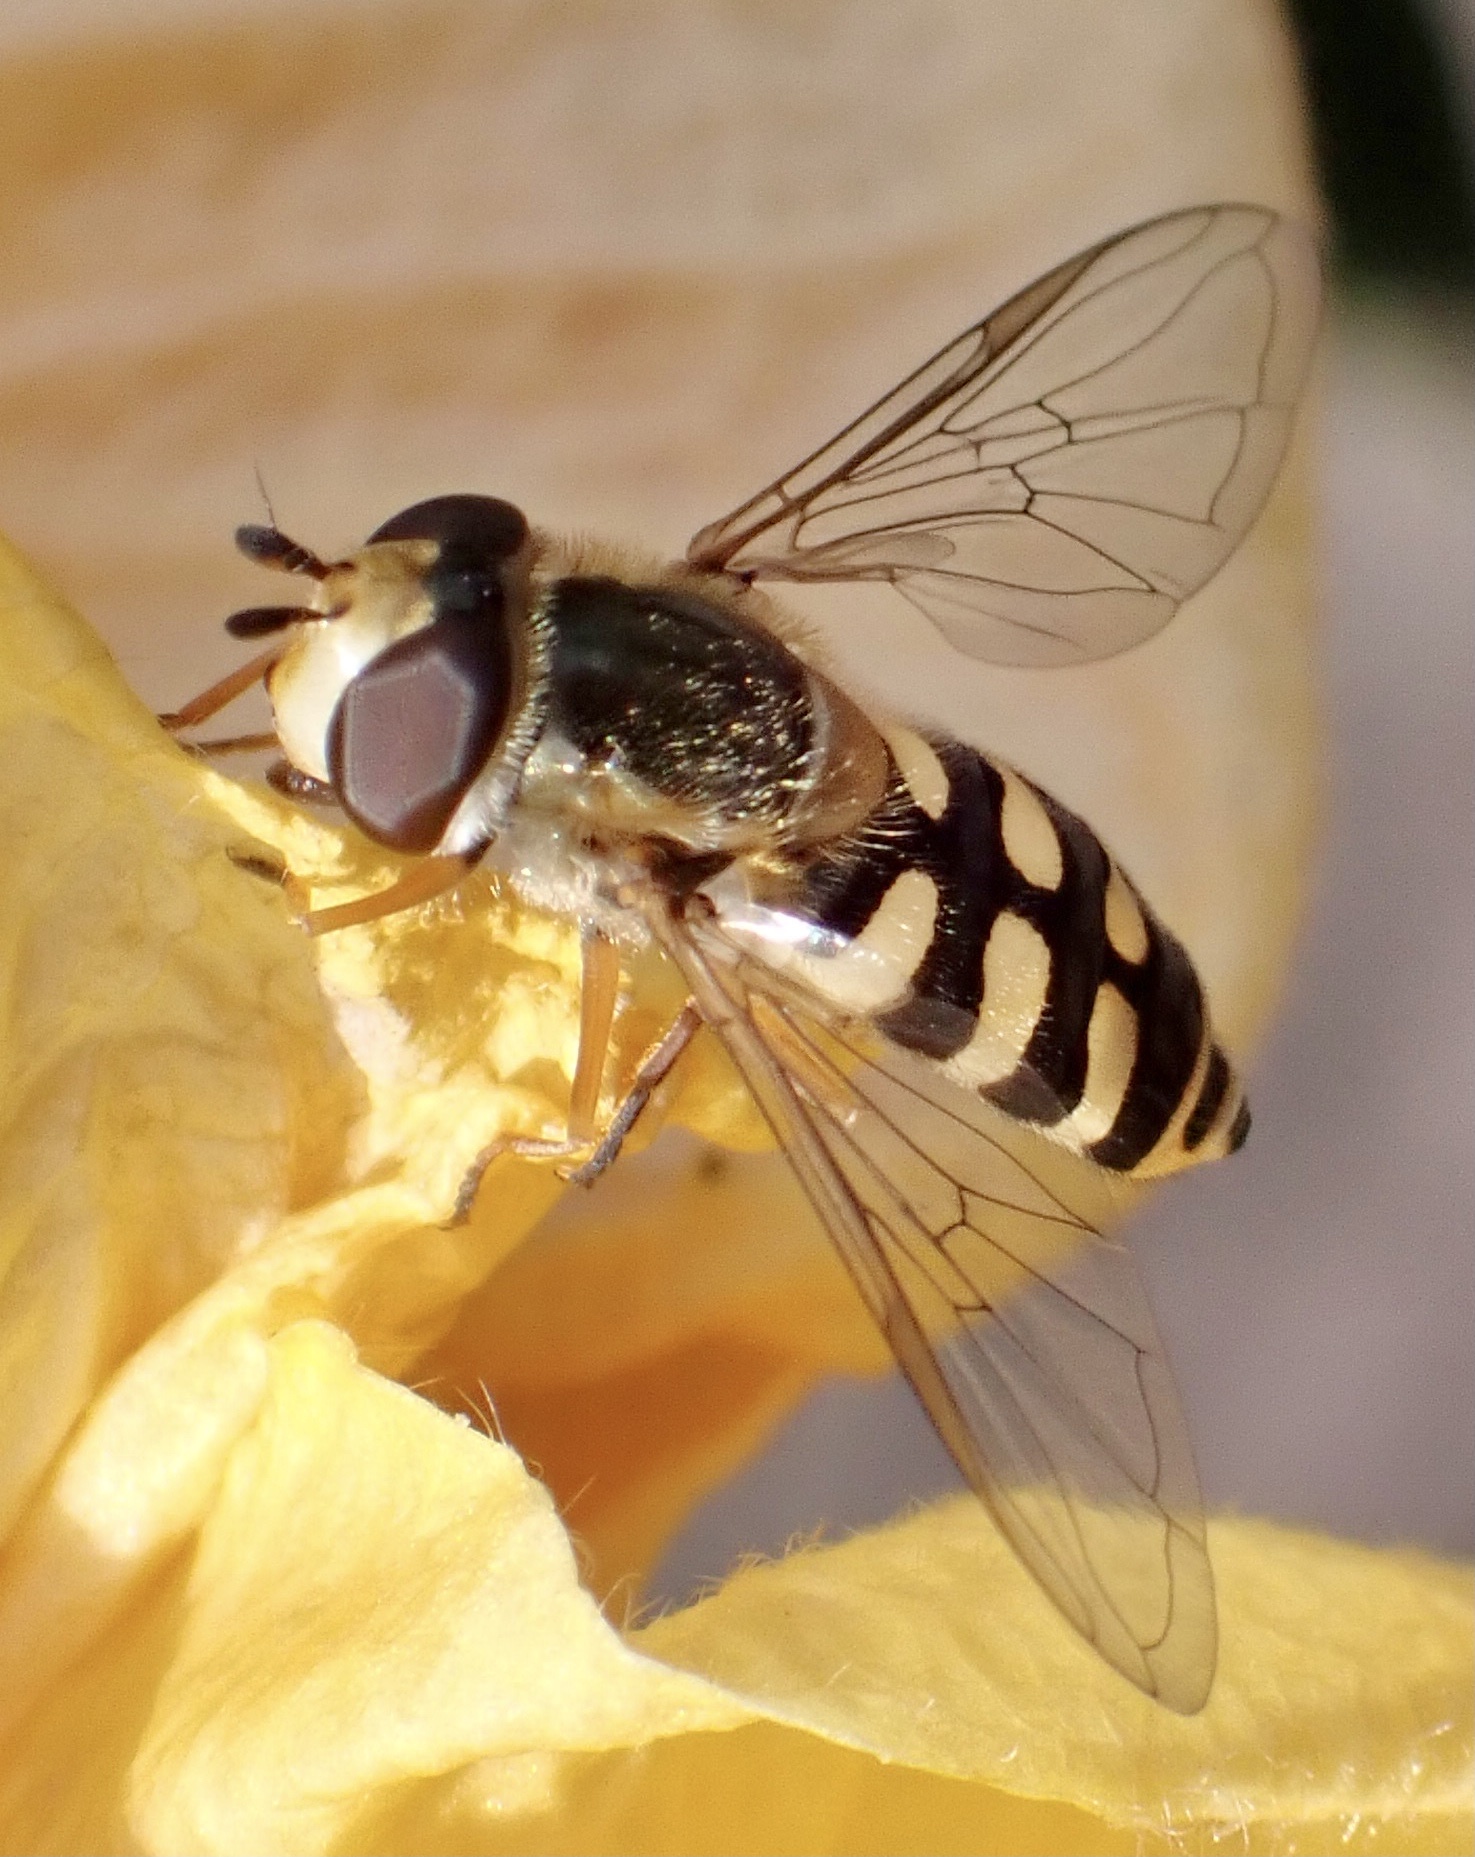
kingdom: Animalia
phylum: Arthropoda
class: Insecta
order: Diptera
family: Syrphidae
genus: Eupeodes
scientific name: Eupeodes corollae
